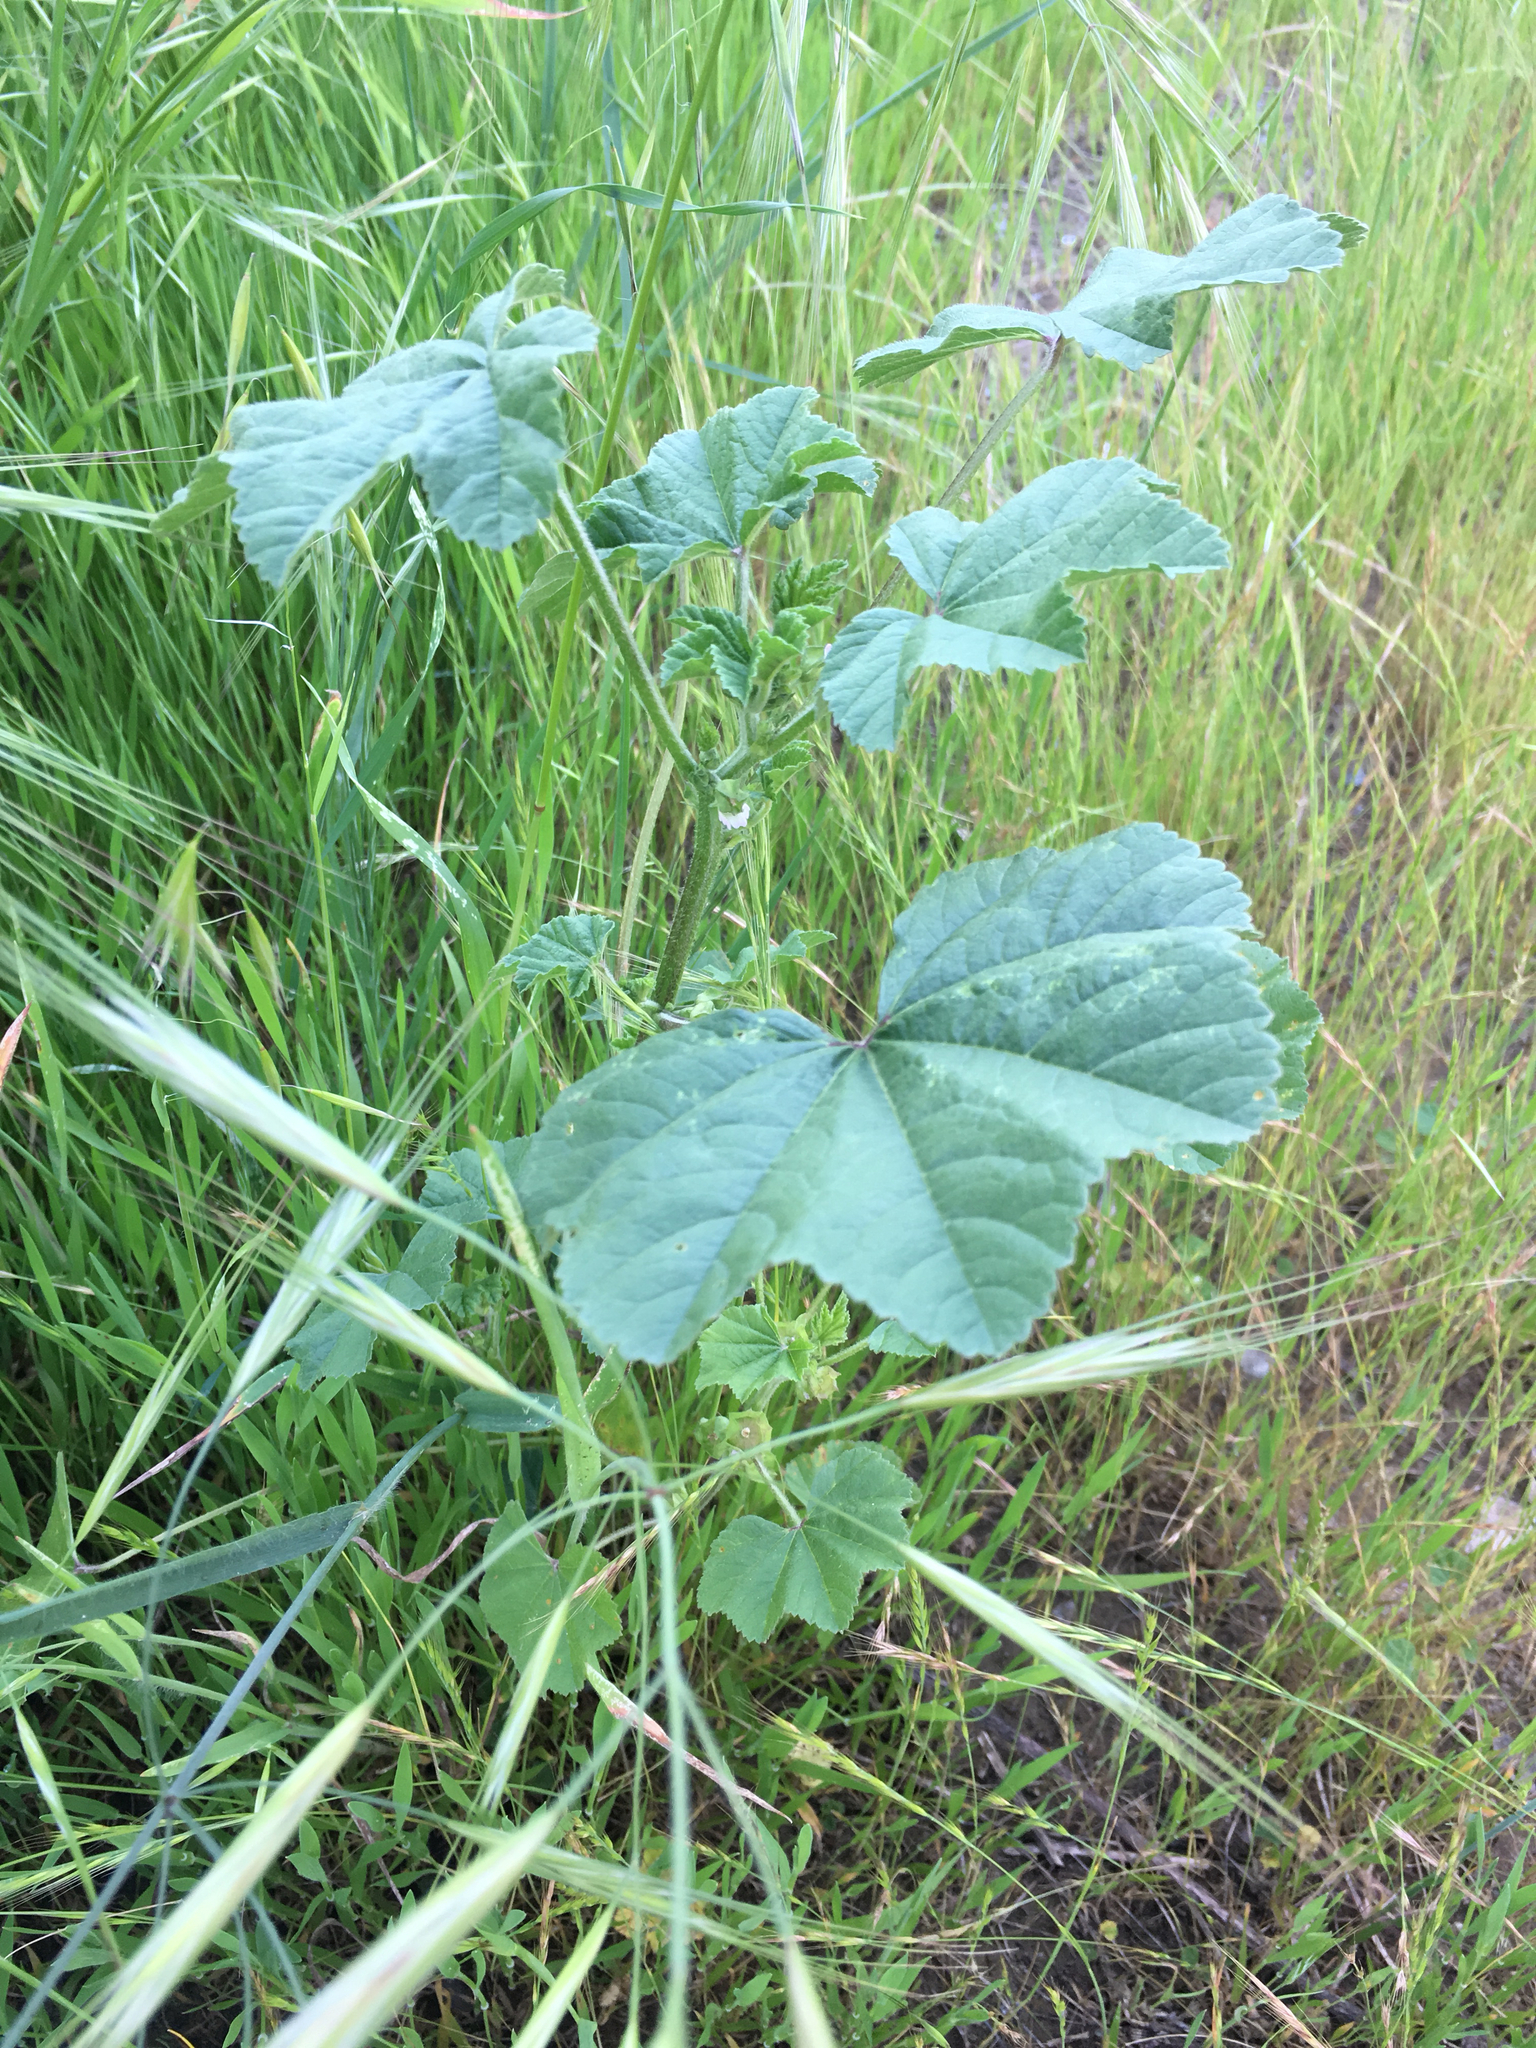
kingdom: Plantae
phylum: Tracheophyta
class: Magnoliopsida
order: Malvales
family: Malvaceae
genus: Malva
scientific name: Malva parviflora
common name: Least mallow
